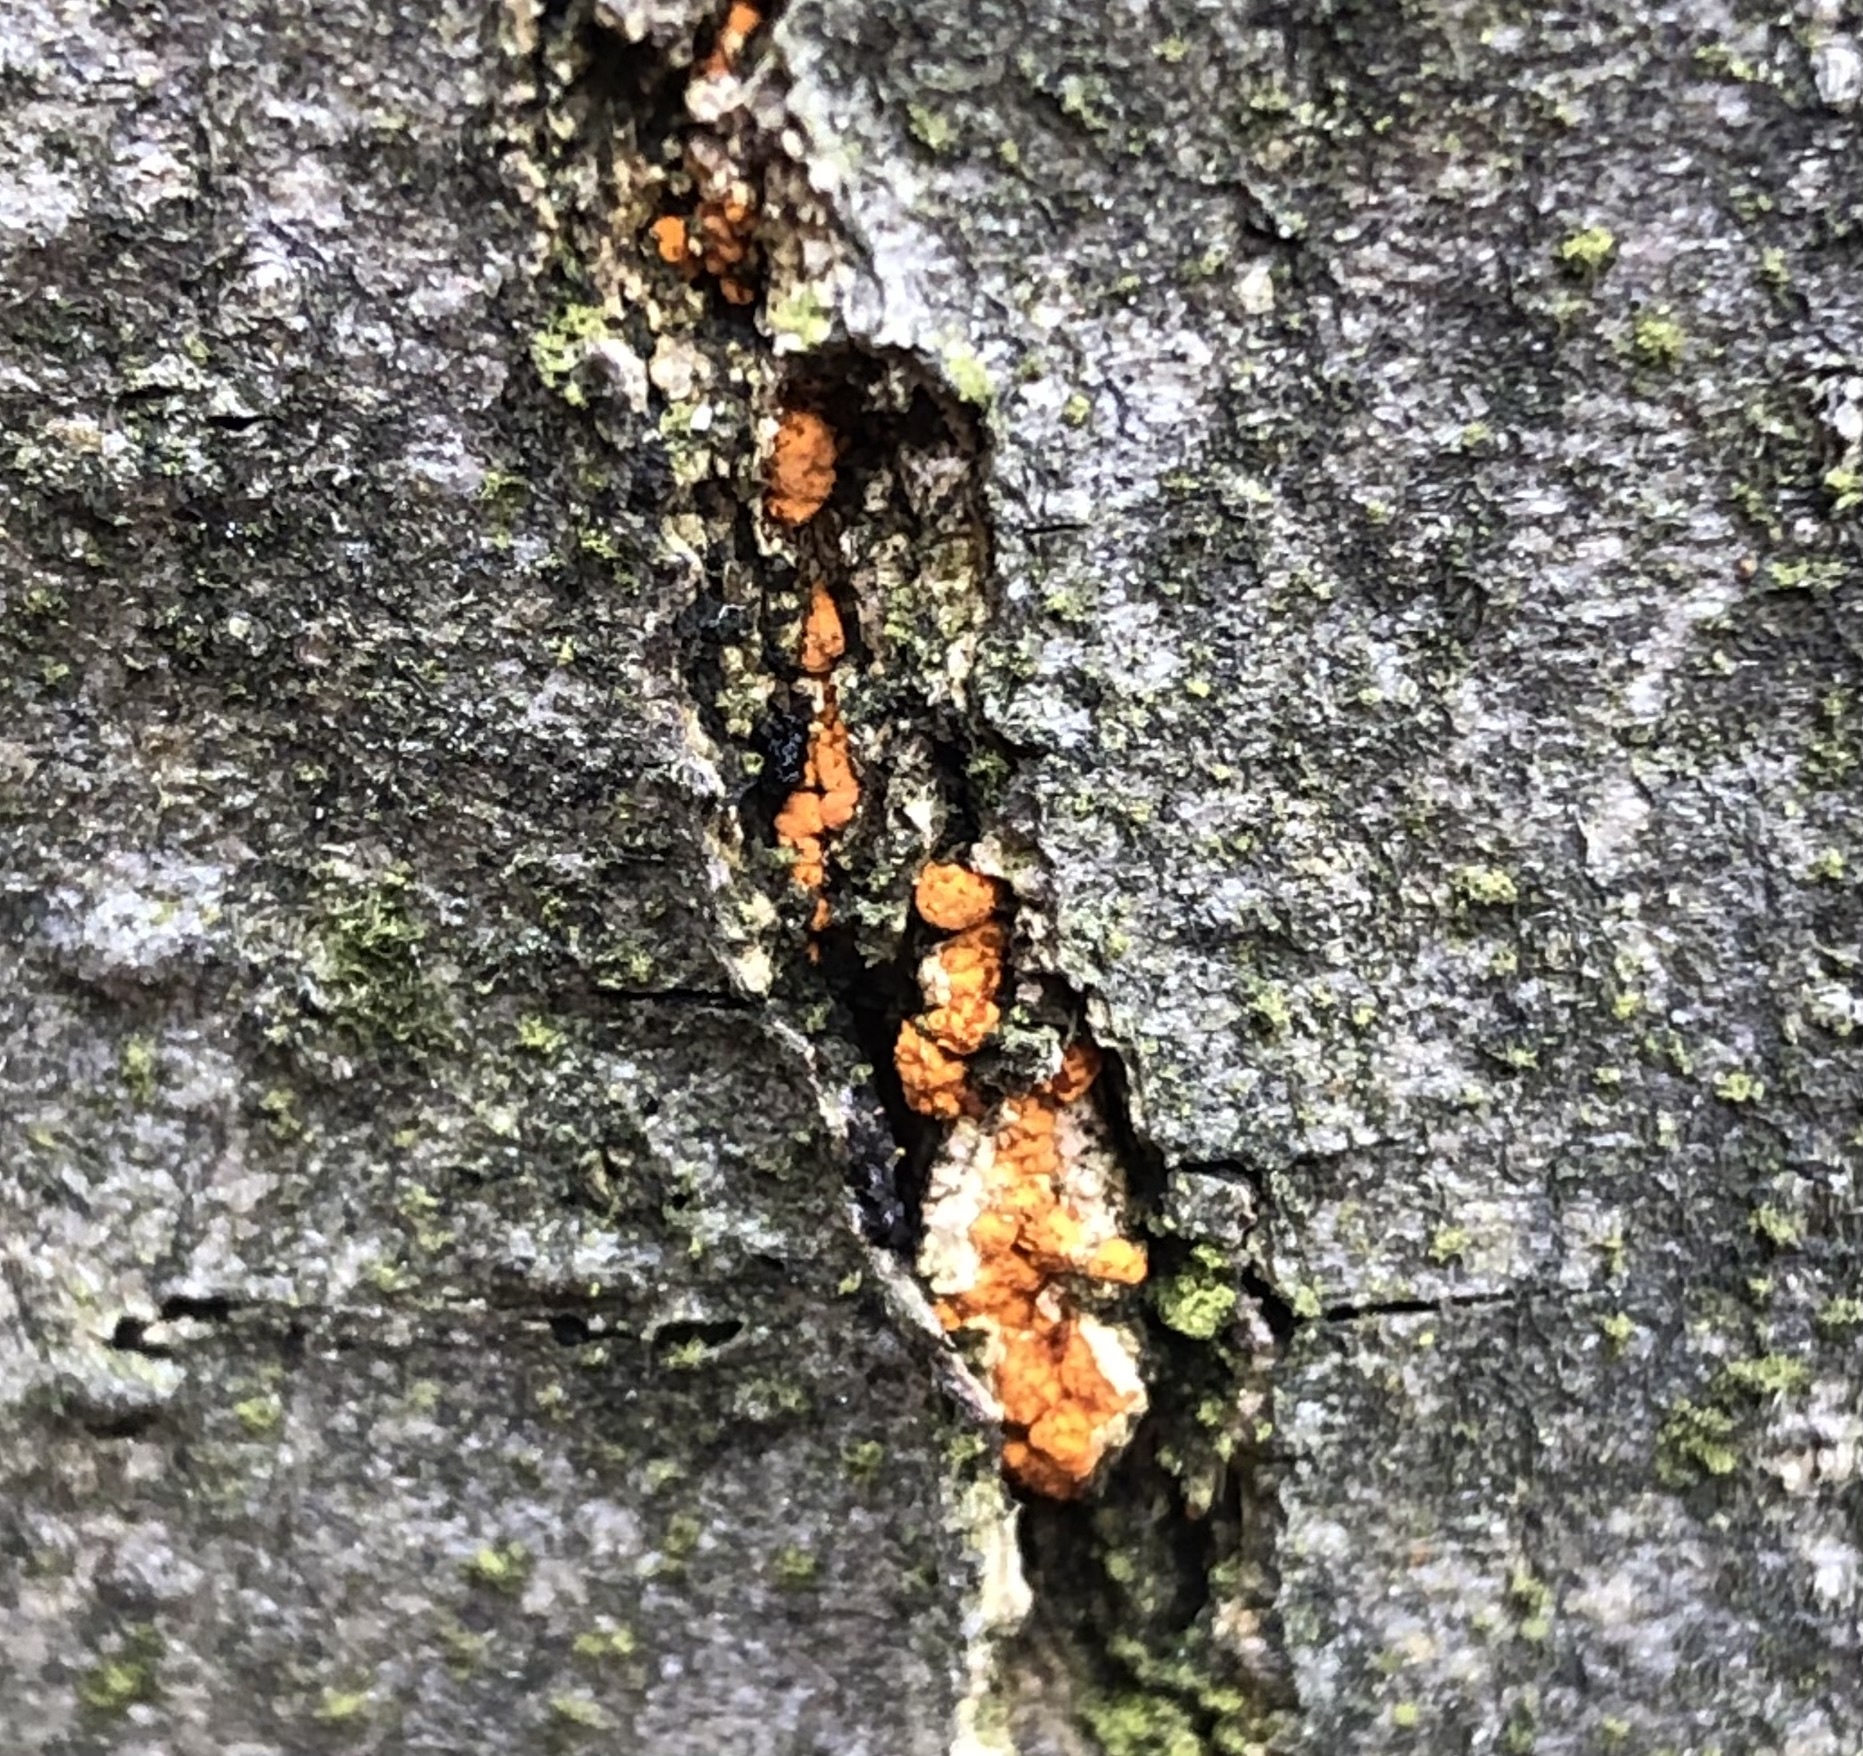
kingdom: Fungi
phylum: Ascomycota
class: Sordariomycetes
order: Diaporthales
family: Cryphonectriaceae
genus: Cryphonectria
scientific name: Cryphonectria parasitica
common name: Chestnut blight
